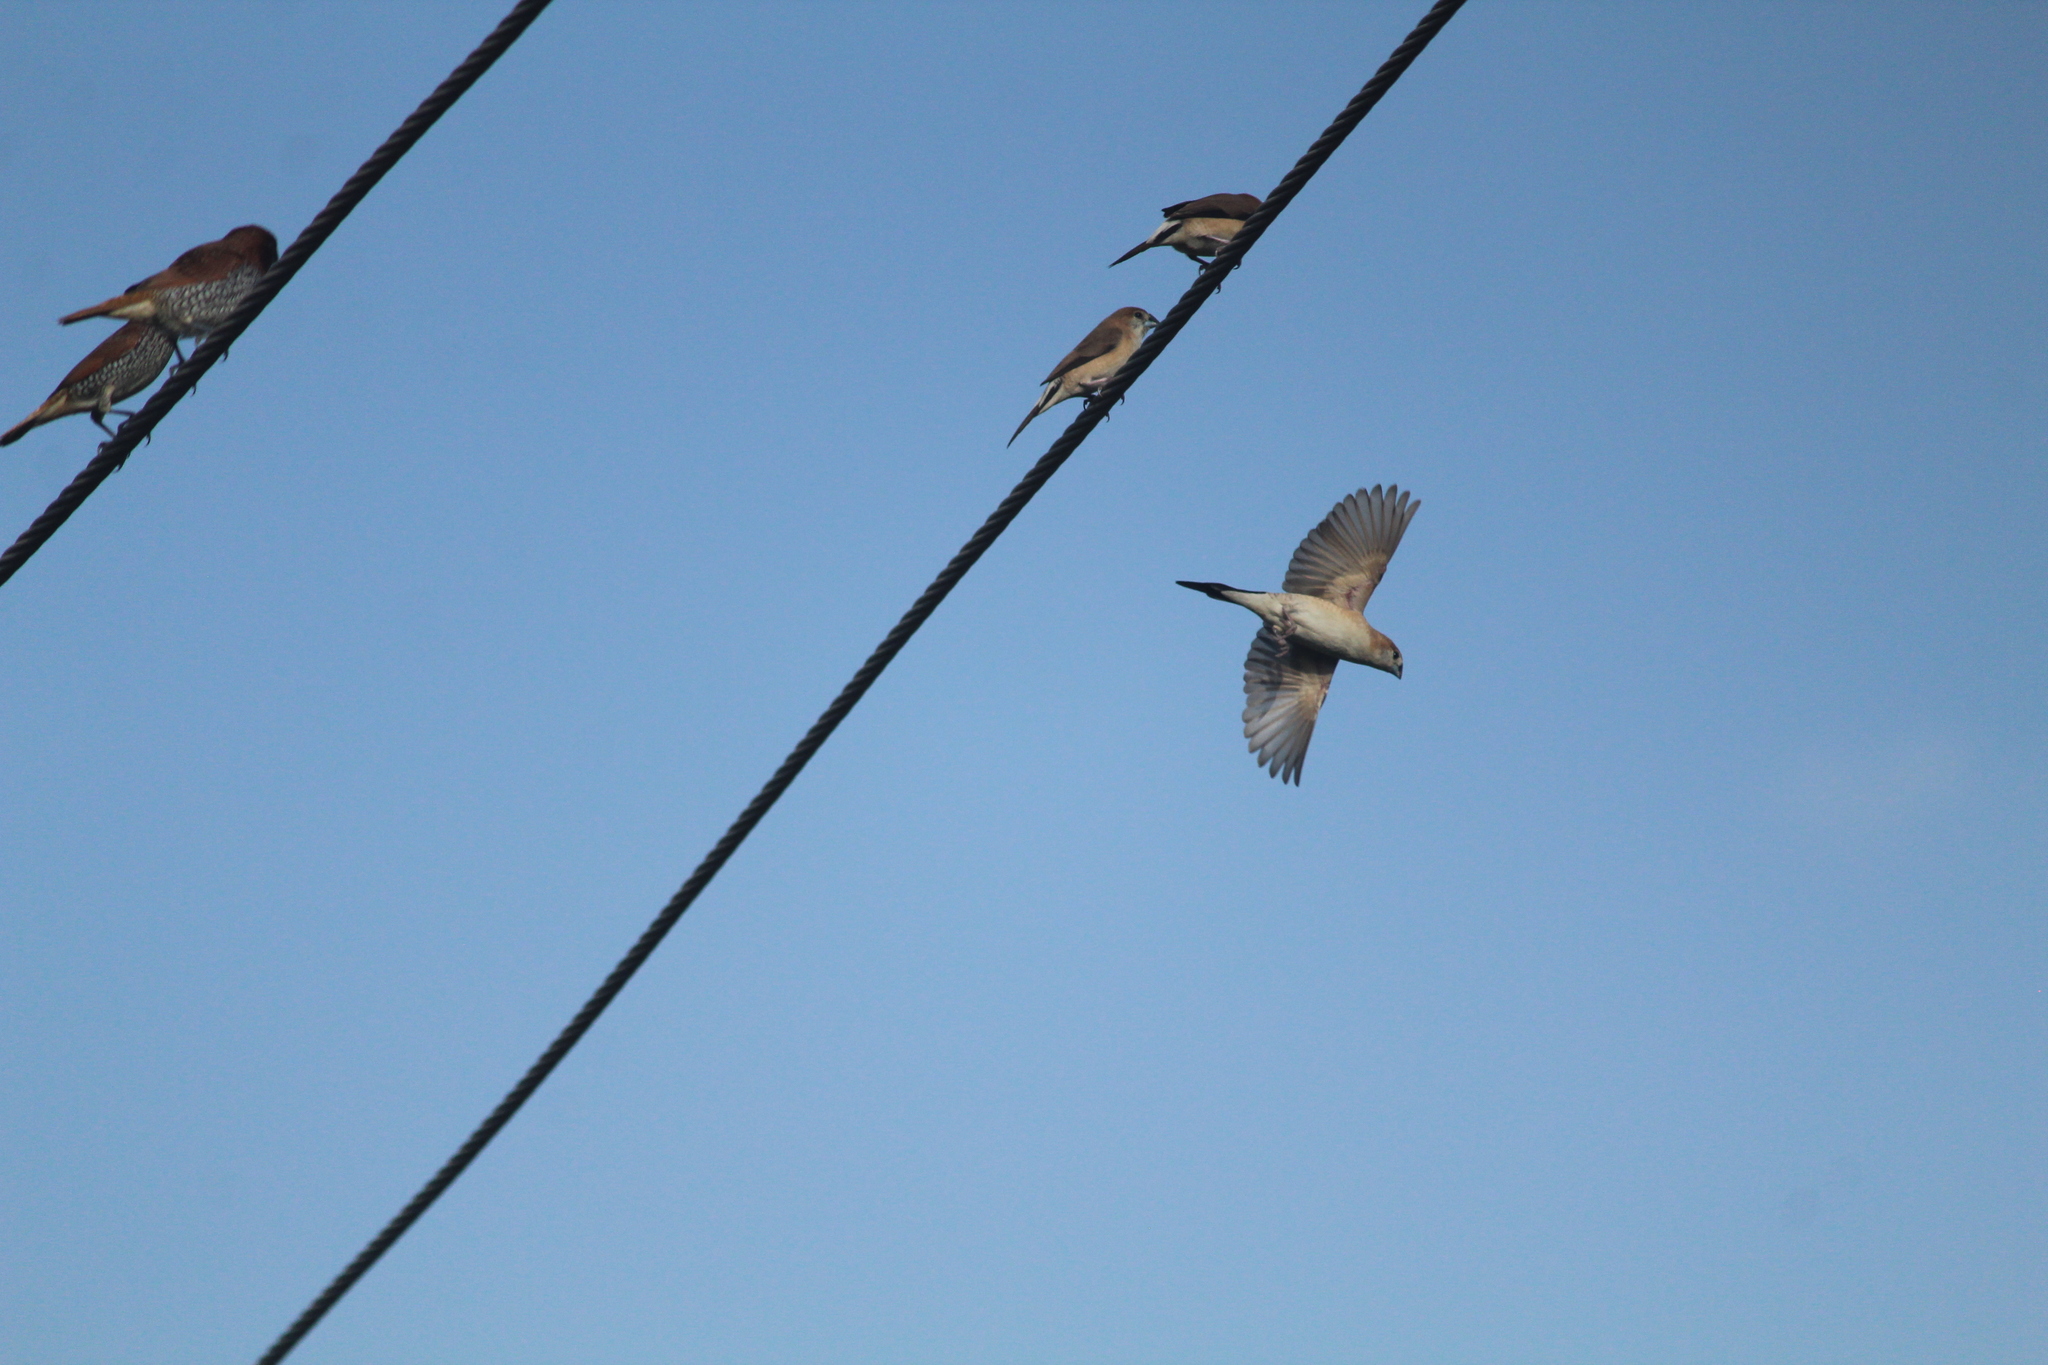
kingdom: Animalia
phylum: Chordata
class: Aves
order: Passeriformes
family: Estrildidae
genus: Euodice
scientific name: Euodice malabarica
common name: Indian silverbill
